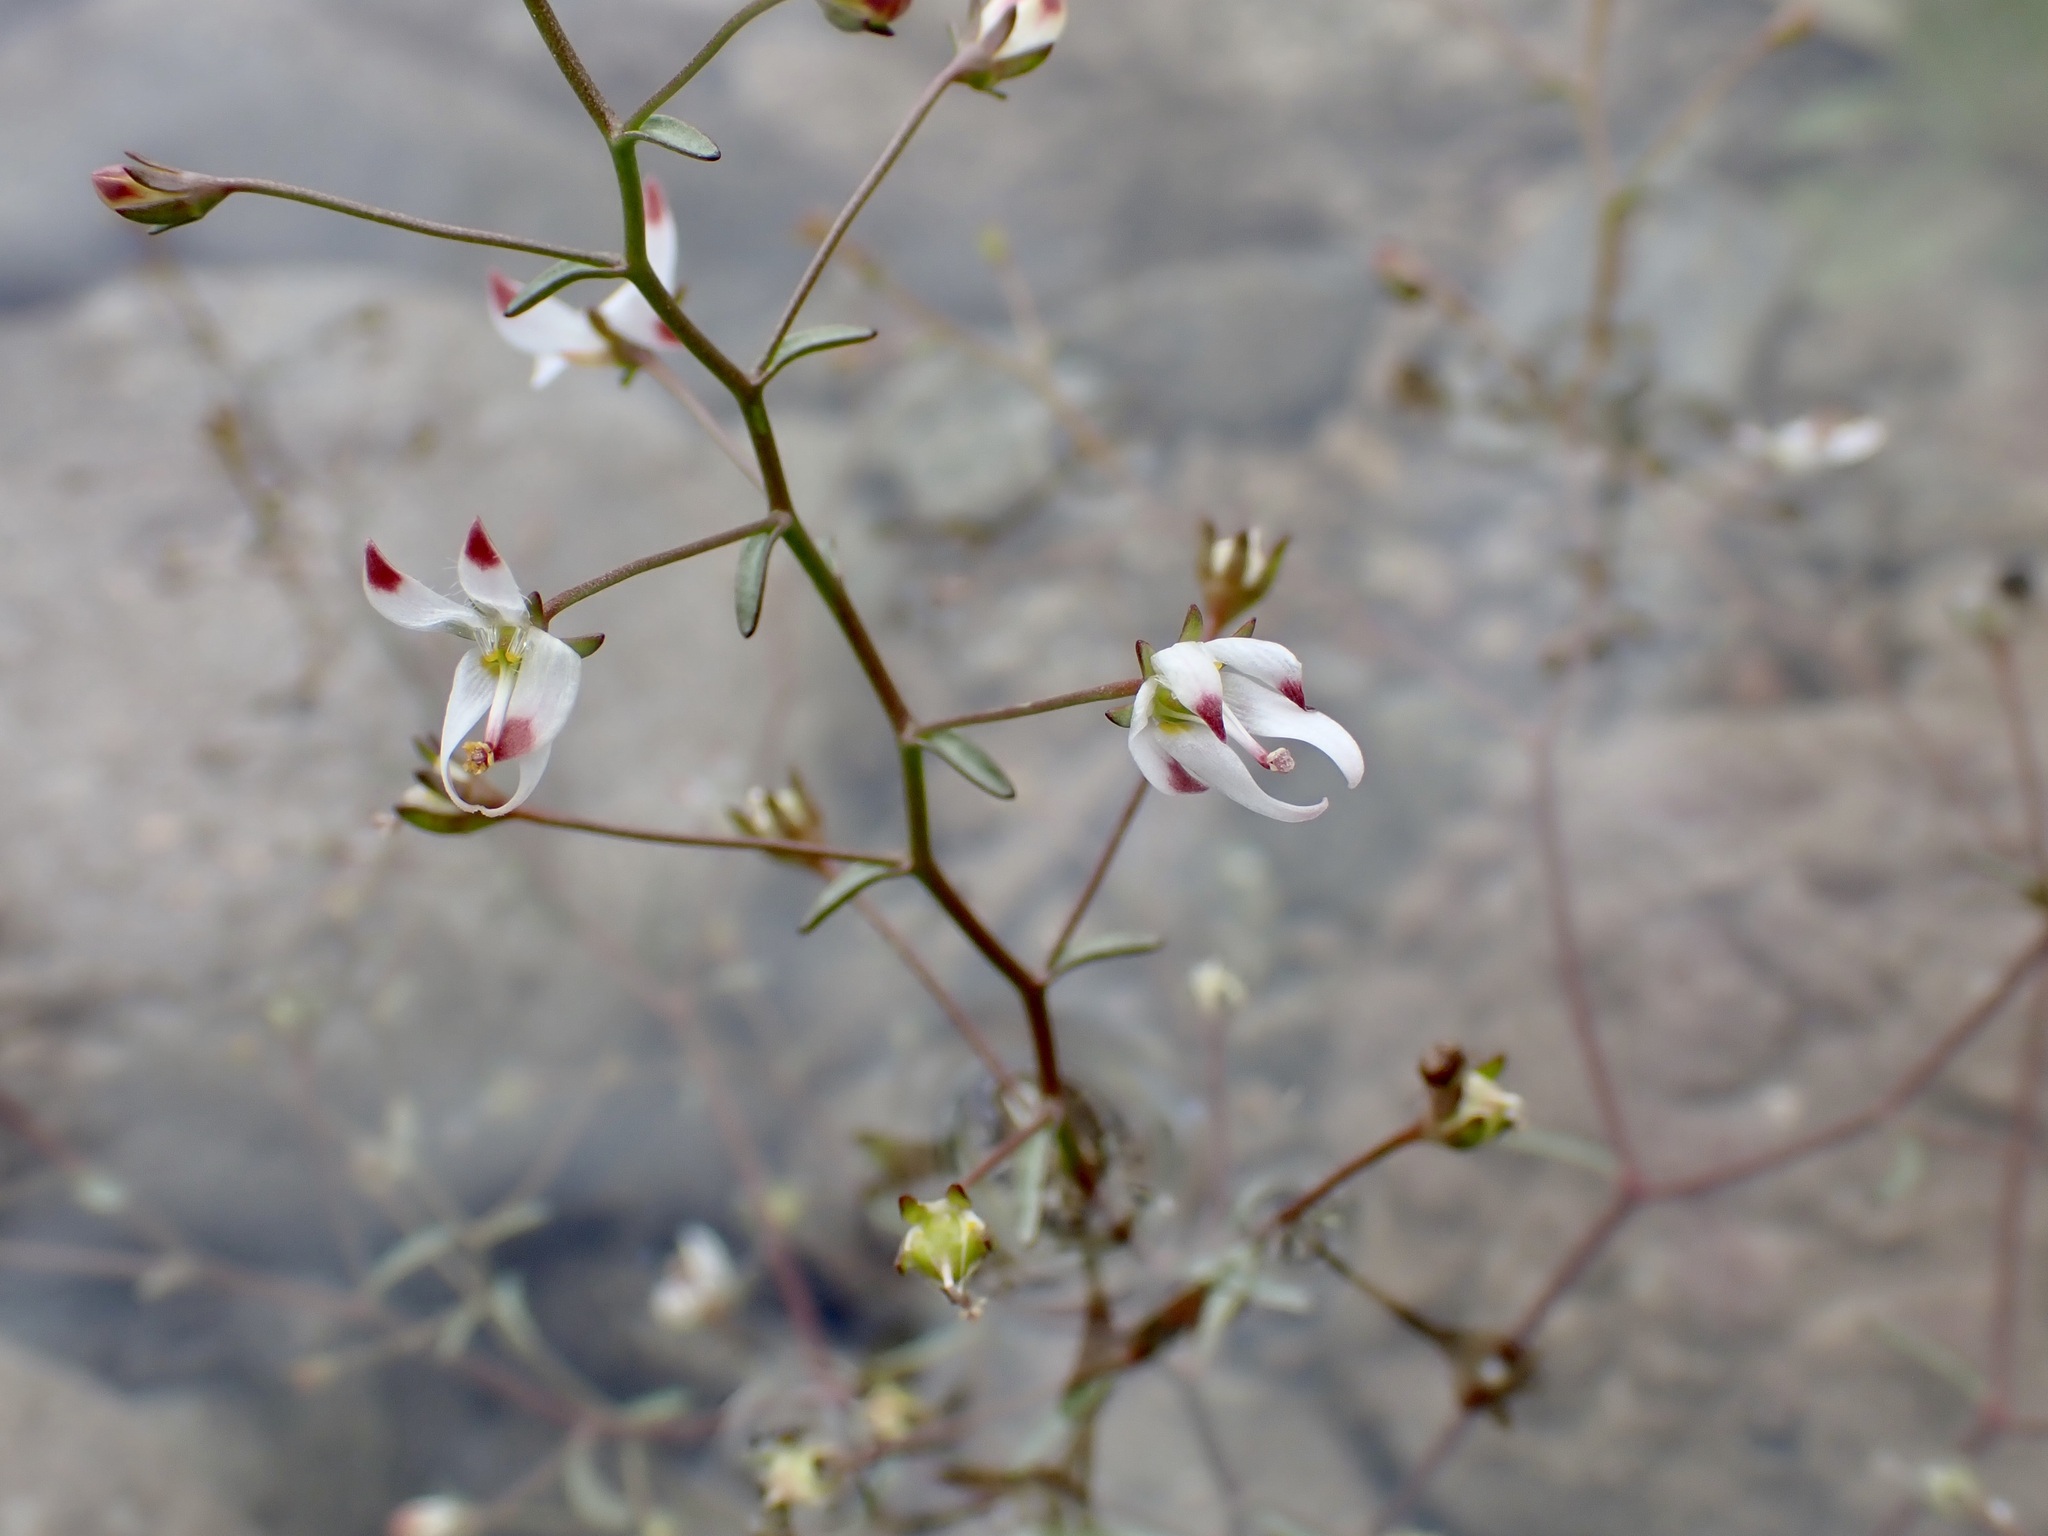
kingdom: Plantae
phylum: Tracheophyta
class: Magnoliopsida
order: Asterales
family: Campanulaceae
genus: Nemacladus
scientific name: Nemacladus orientalis
